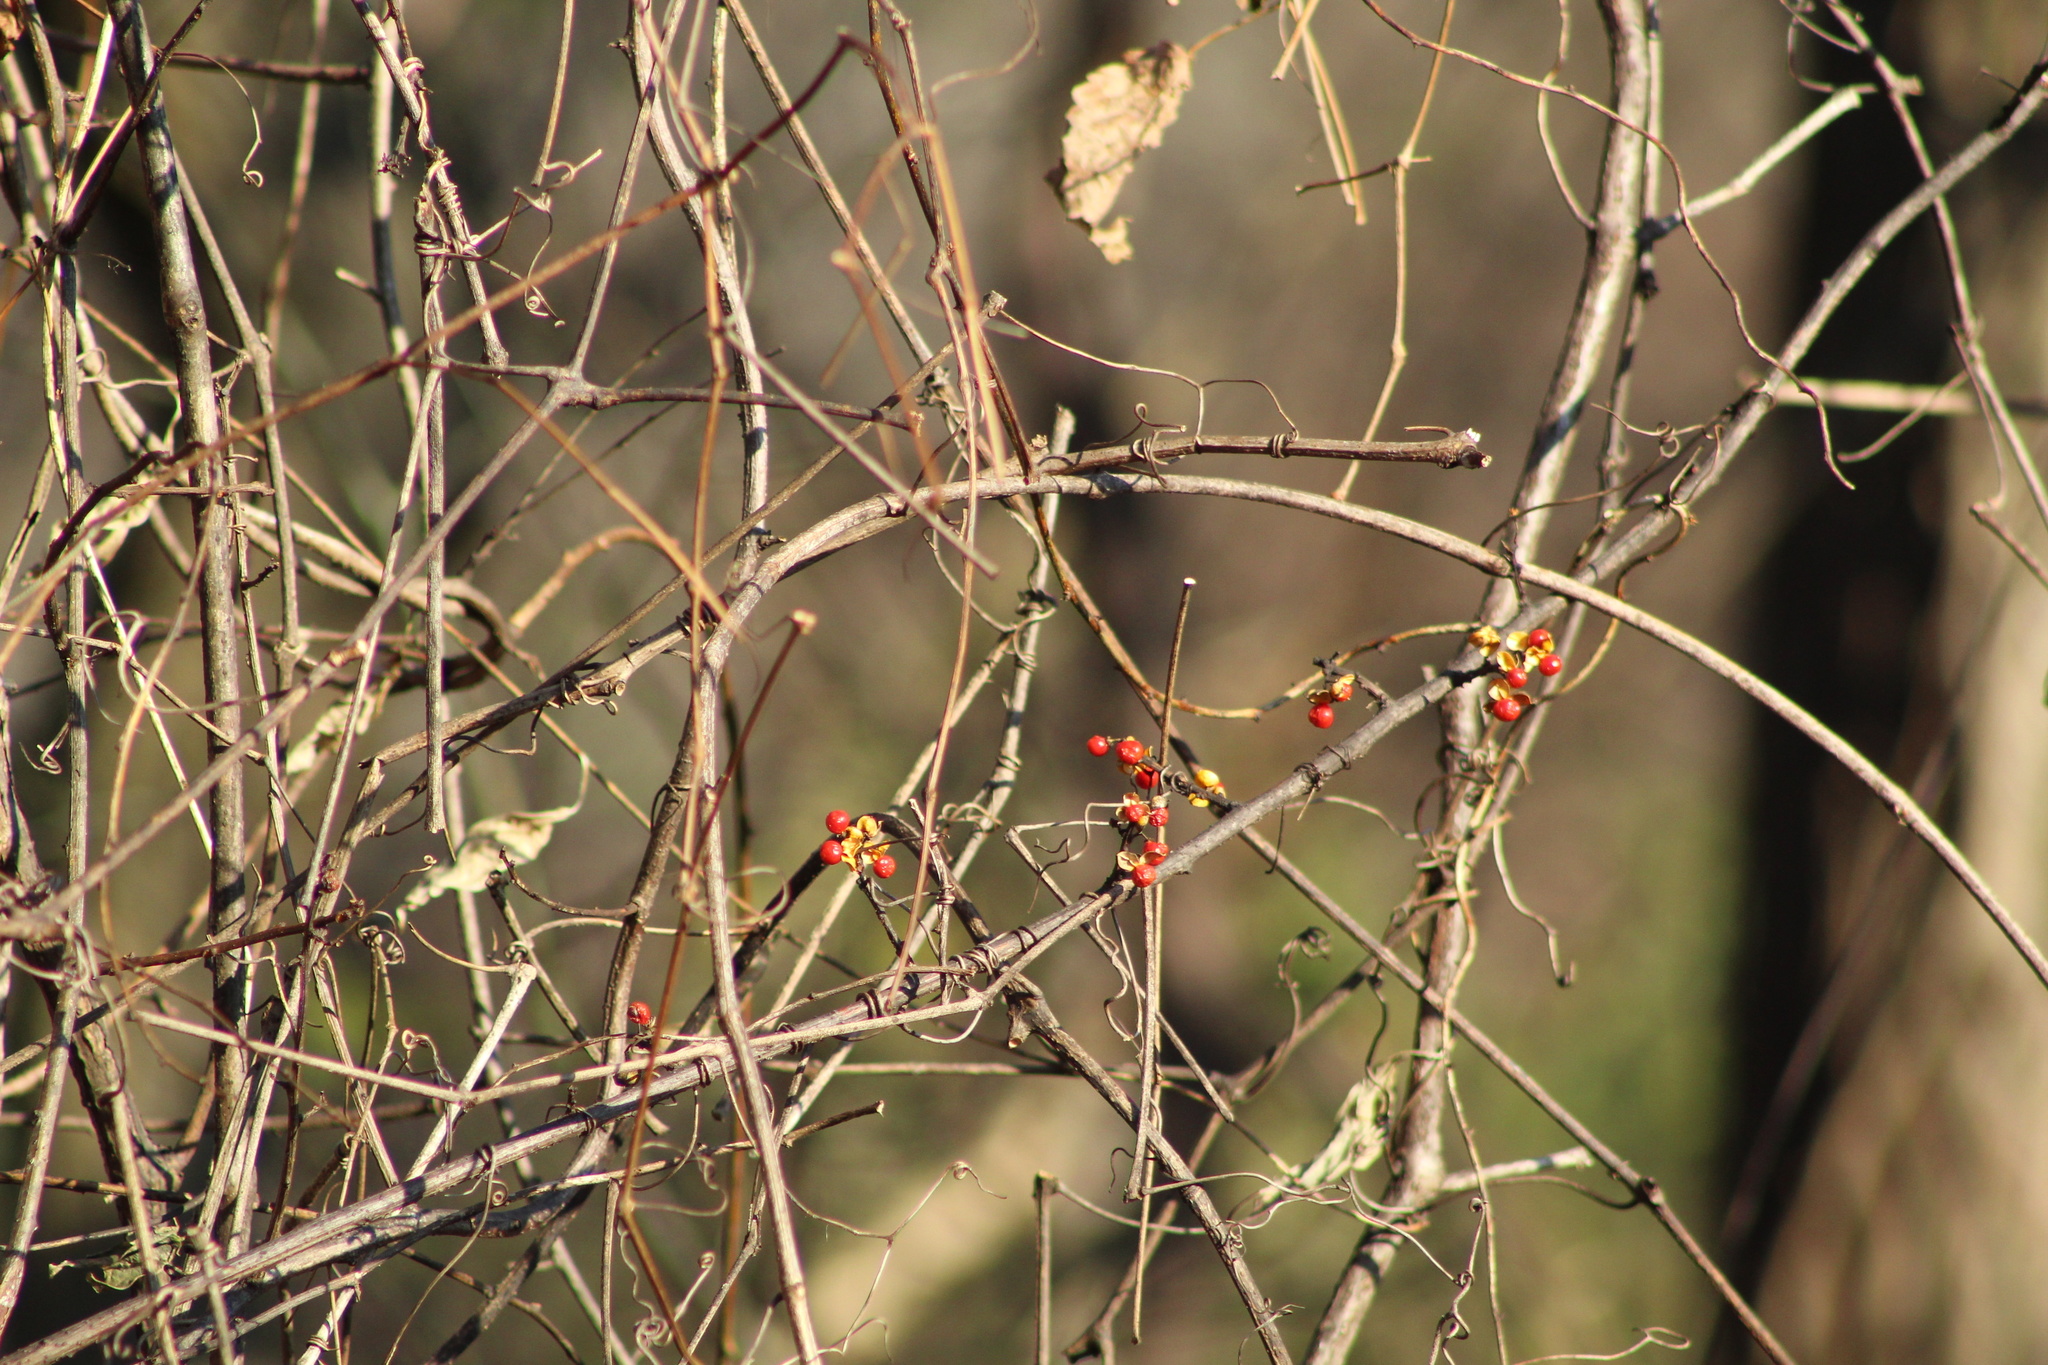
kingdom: Plantae
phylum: Tracheophyta
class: Magnoliopsida
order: Celastrales
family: Celastraceae
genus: Celastrus
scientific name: Celastrus orbiculatus
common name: Oriental bittersweet
